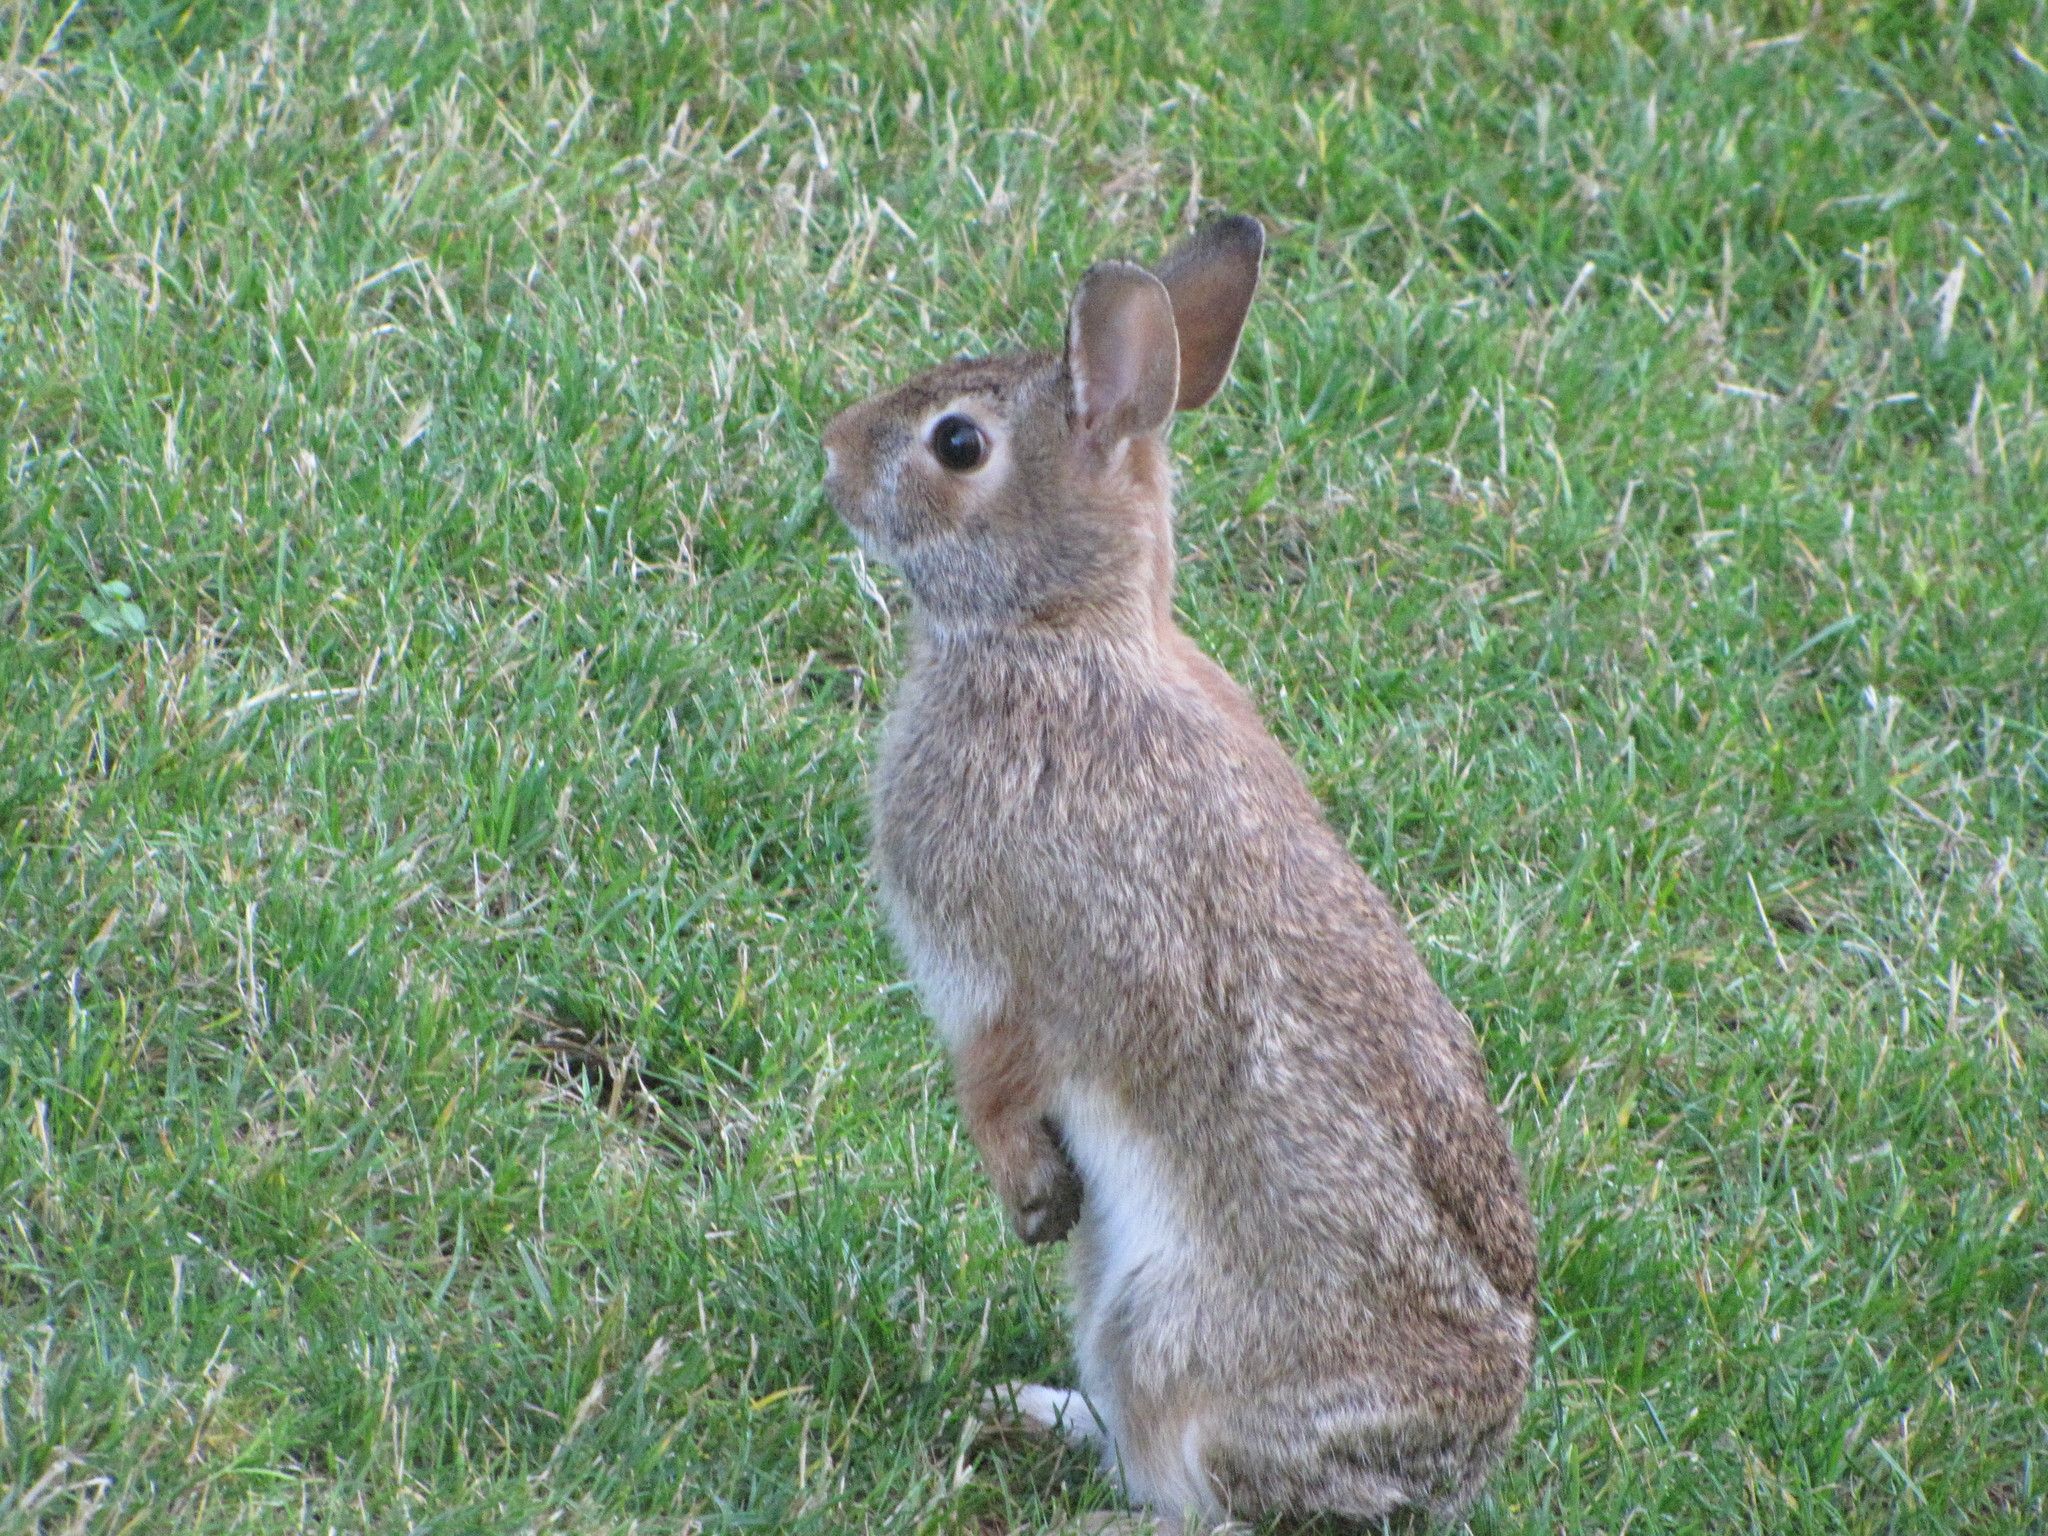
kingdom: Animalia
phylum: Chordata
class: Mammalia
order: Lagomorpha
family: Leporidae
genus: Sylvilagus
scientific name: Sylvilagus floridanus
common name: Eastern cottontail
